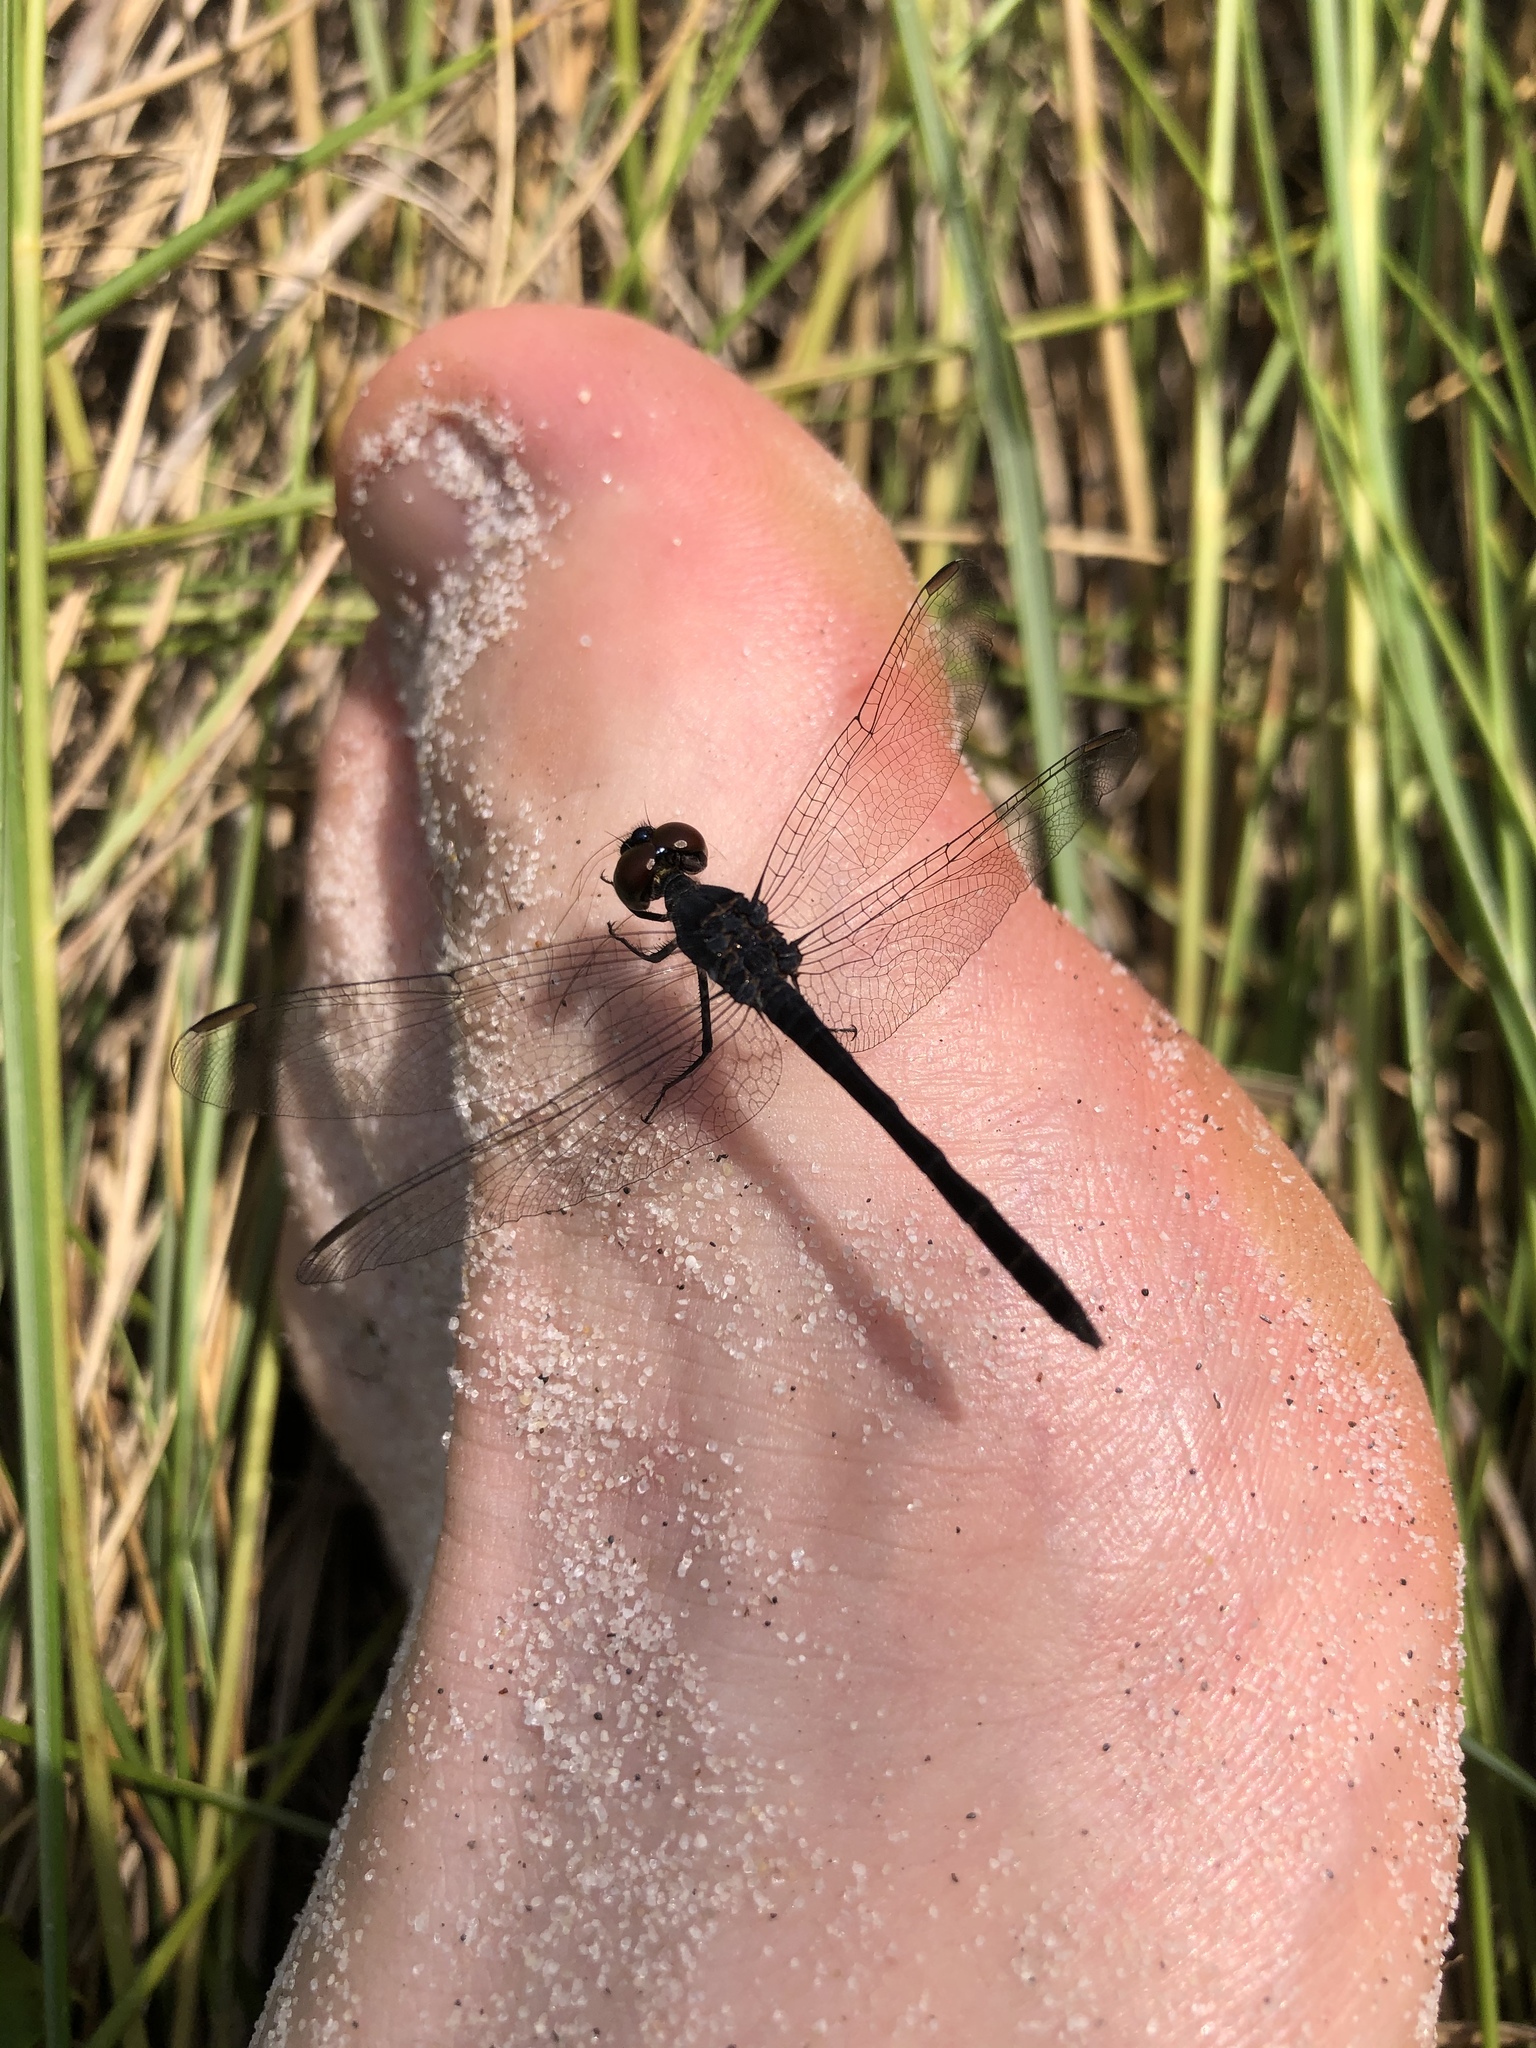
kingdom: Animalia
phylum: Arthropoda
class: Insecta
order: Odonata
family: Libellulidae
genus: Erythrodiplax
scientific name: Erythrodiplax berenice
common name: Seaside dragonlet
